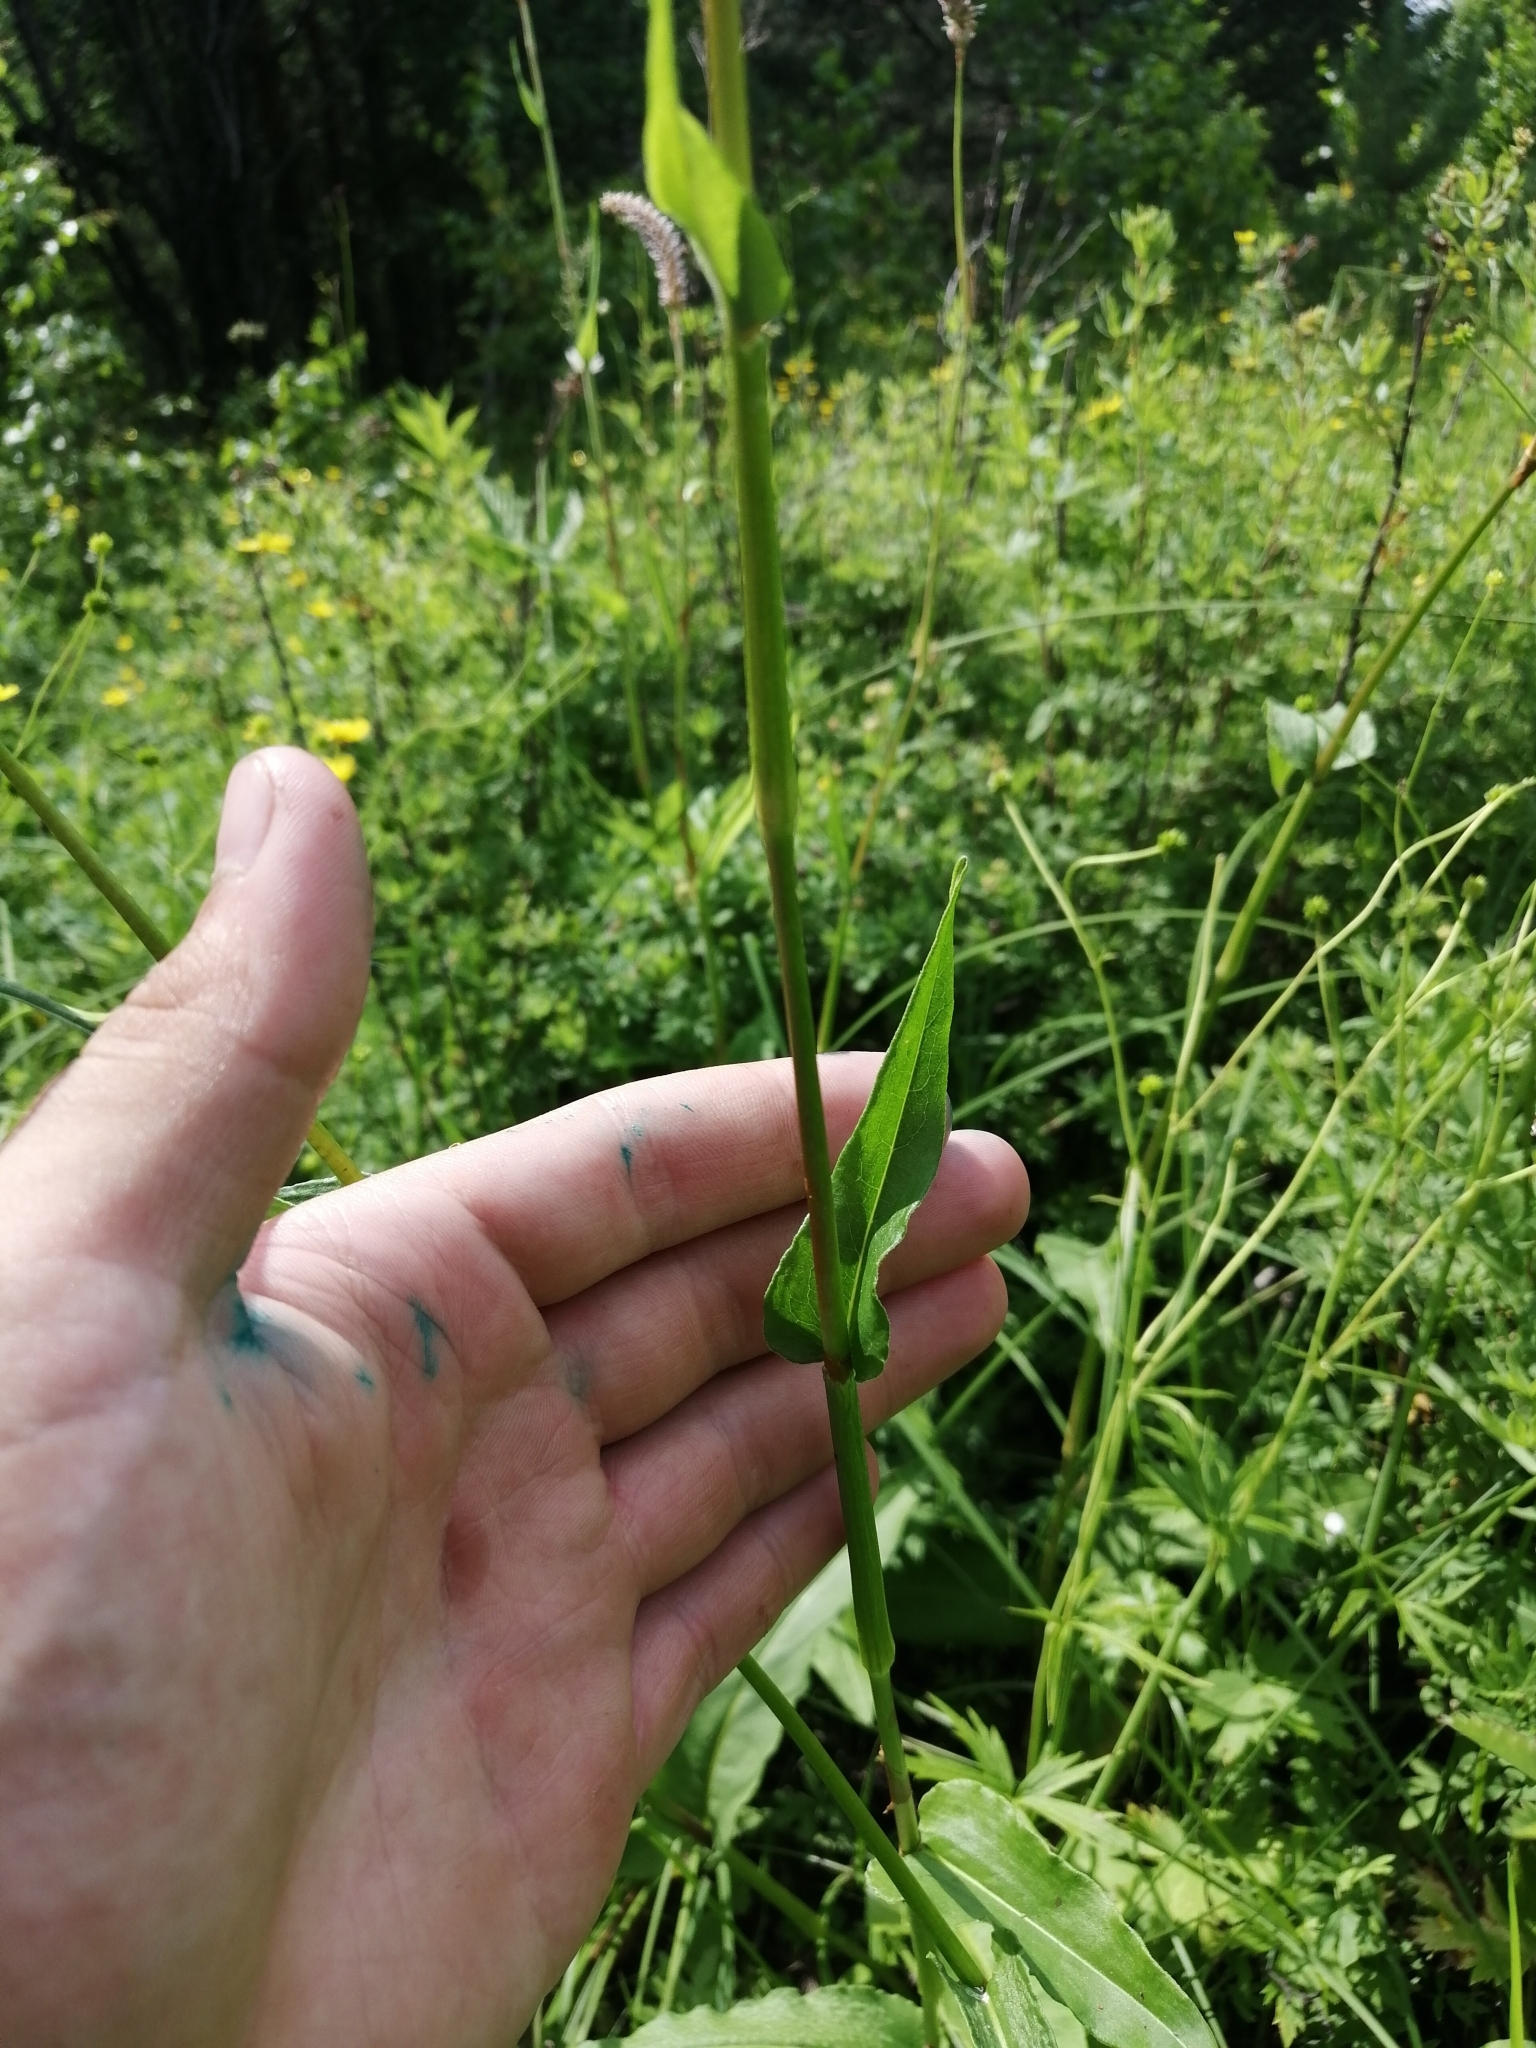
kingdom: Plantae
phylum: Tracheophyta
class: Magnoliopsida
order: Caryophyllales
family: Polygonaceae
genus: Bistorta
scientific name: Bistorta officinalis
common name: Common bistort
